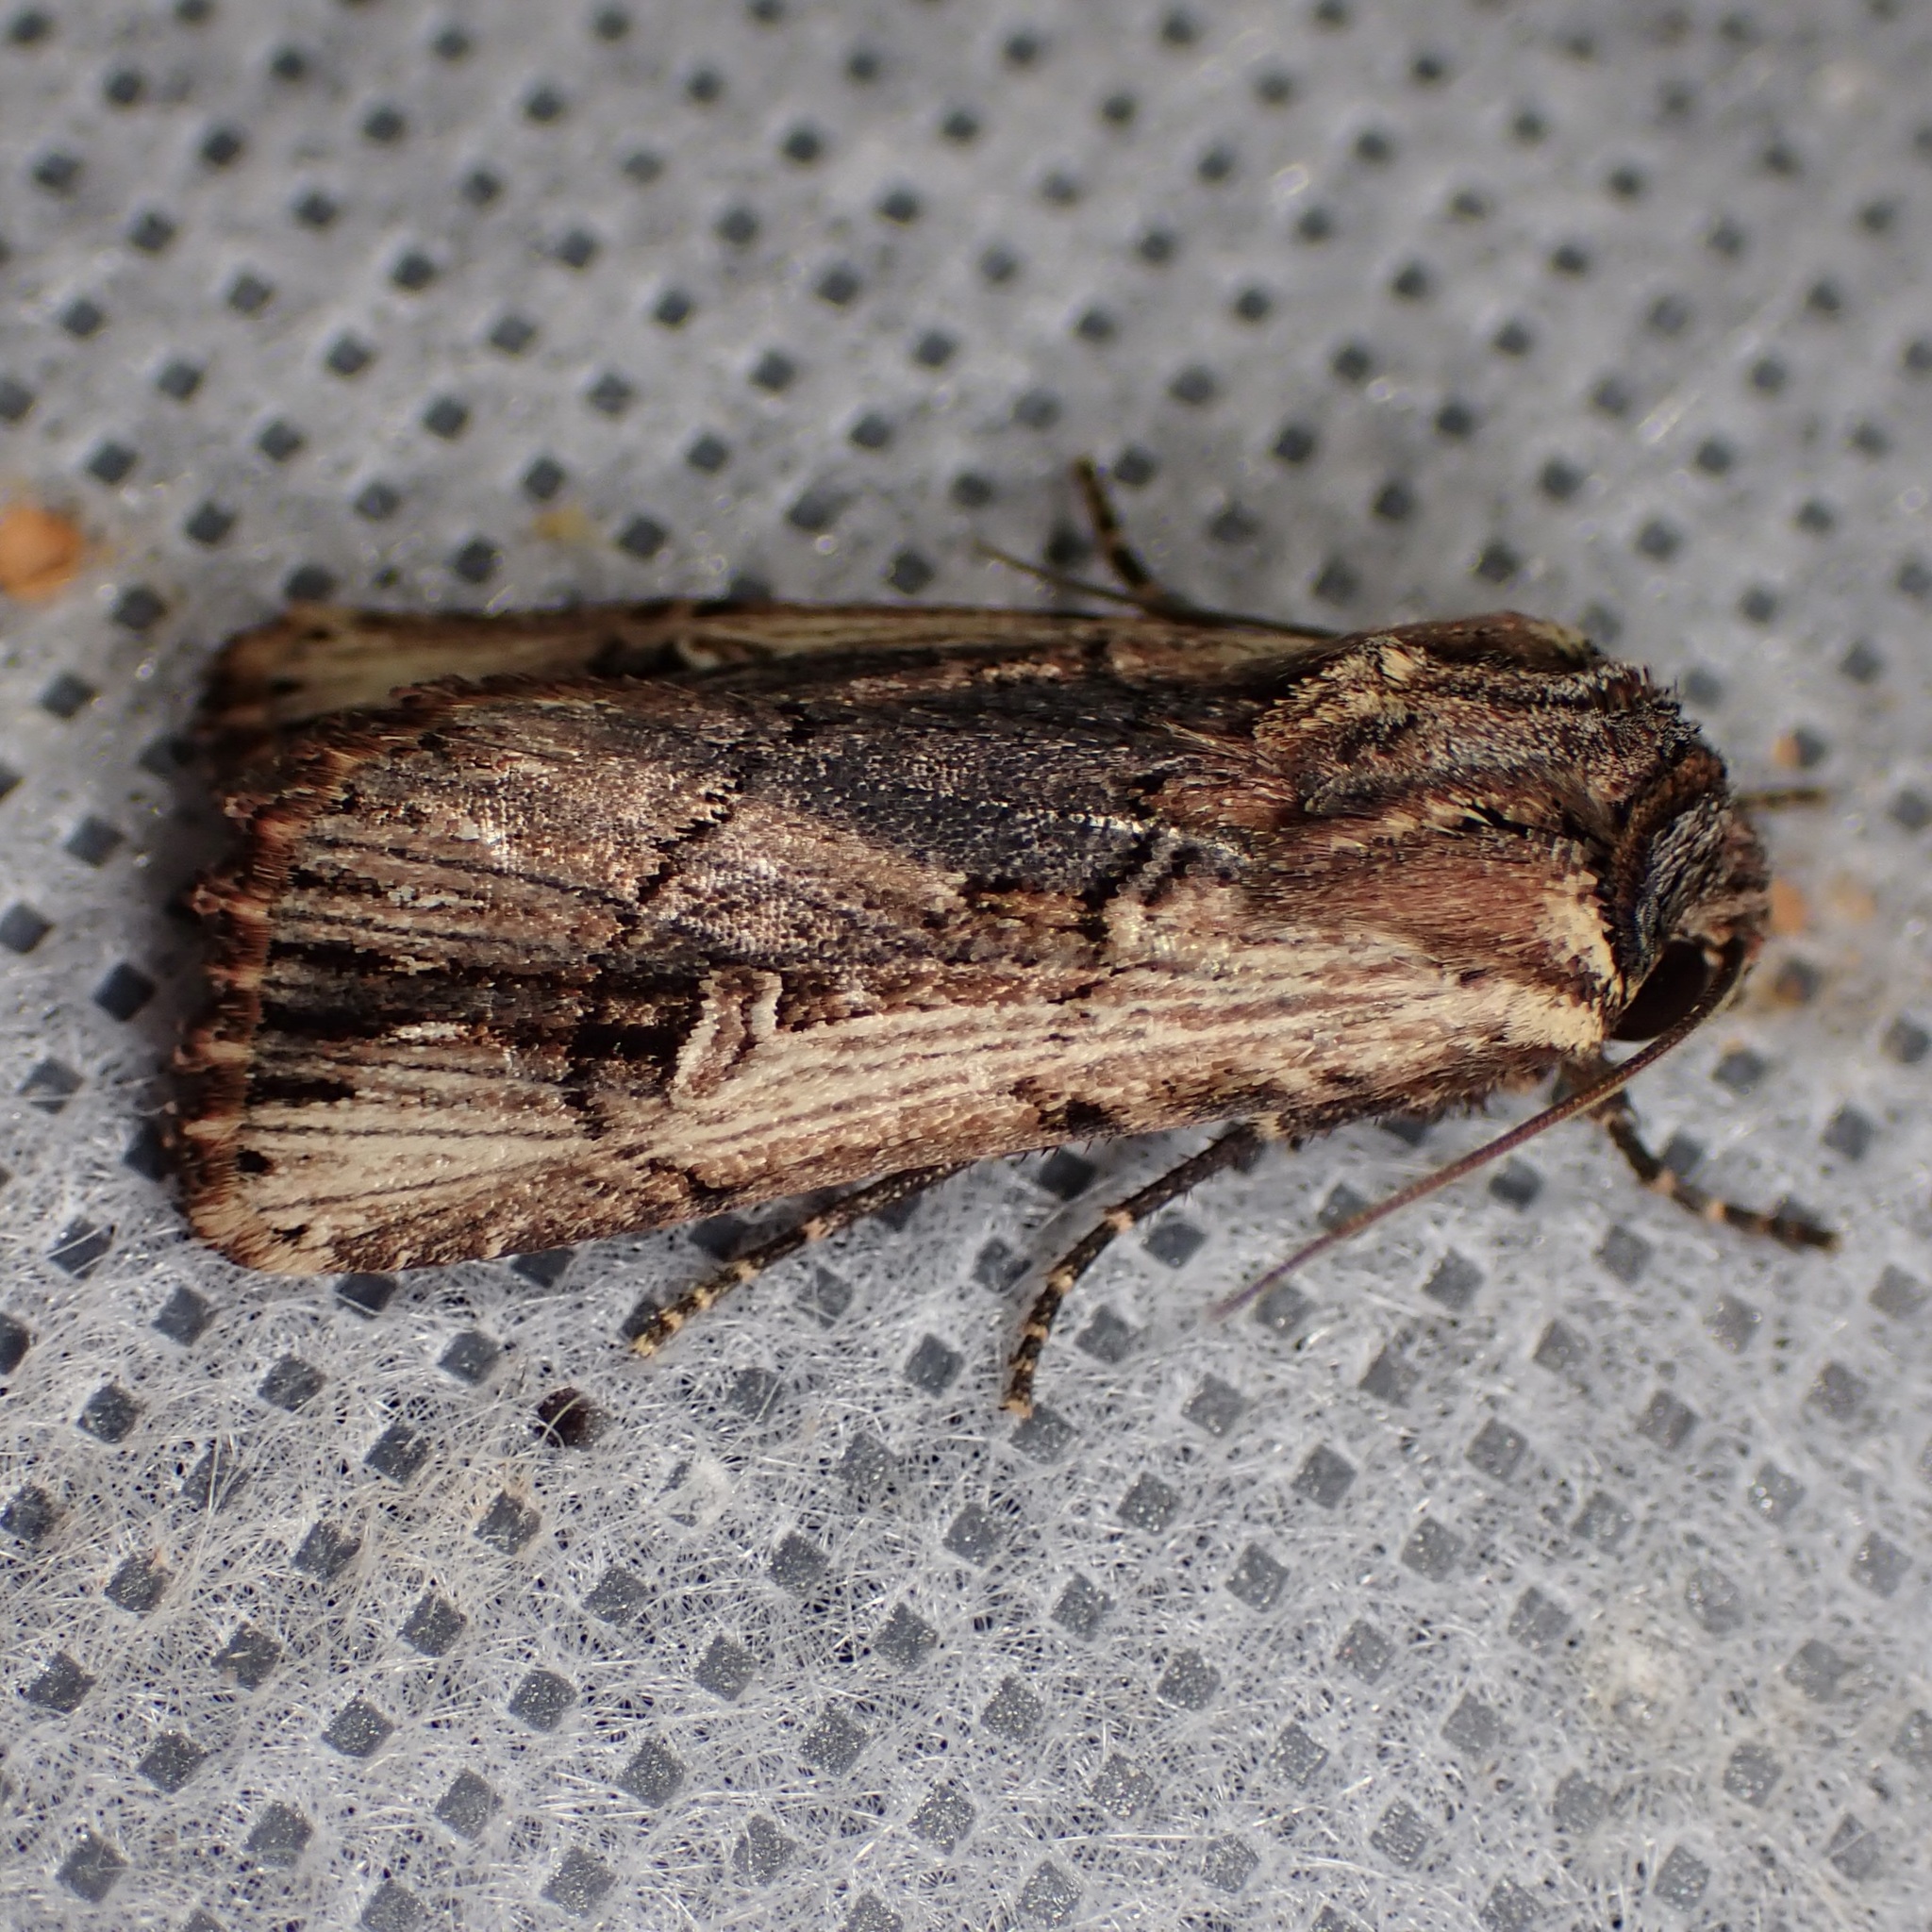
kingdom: Animalia
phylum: Arthropoda
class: Insecta
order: Lepidoptera
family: Noctuidae
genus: Dichagyris
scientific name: Dichagyris cataclivis
